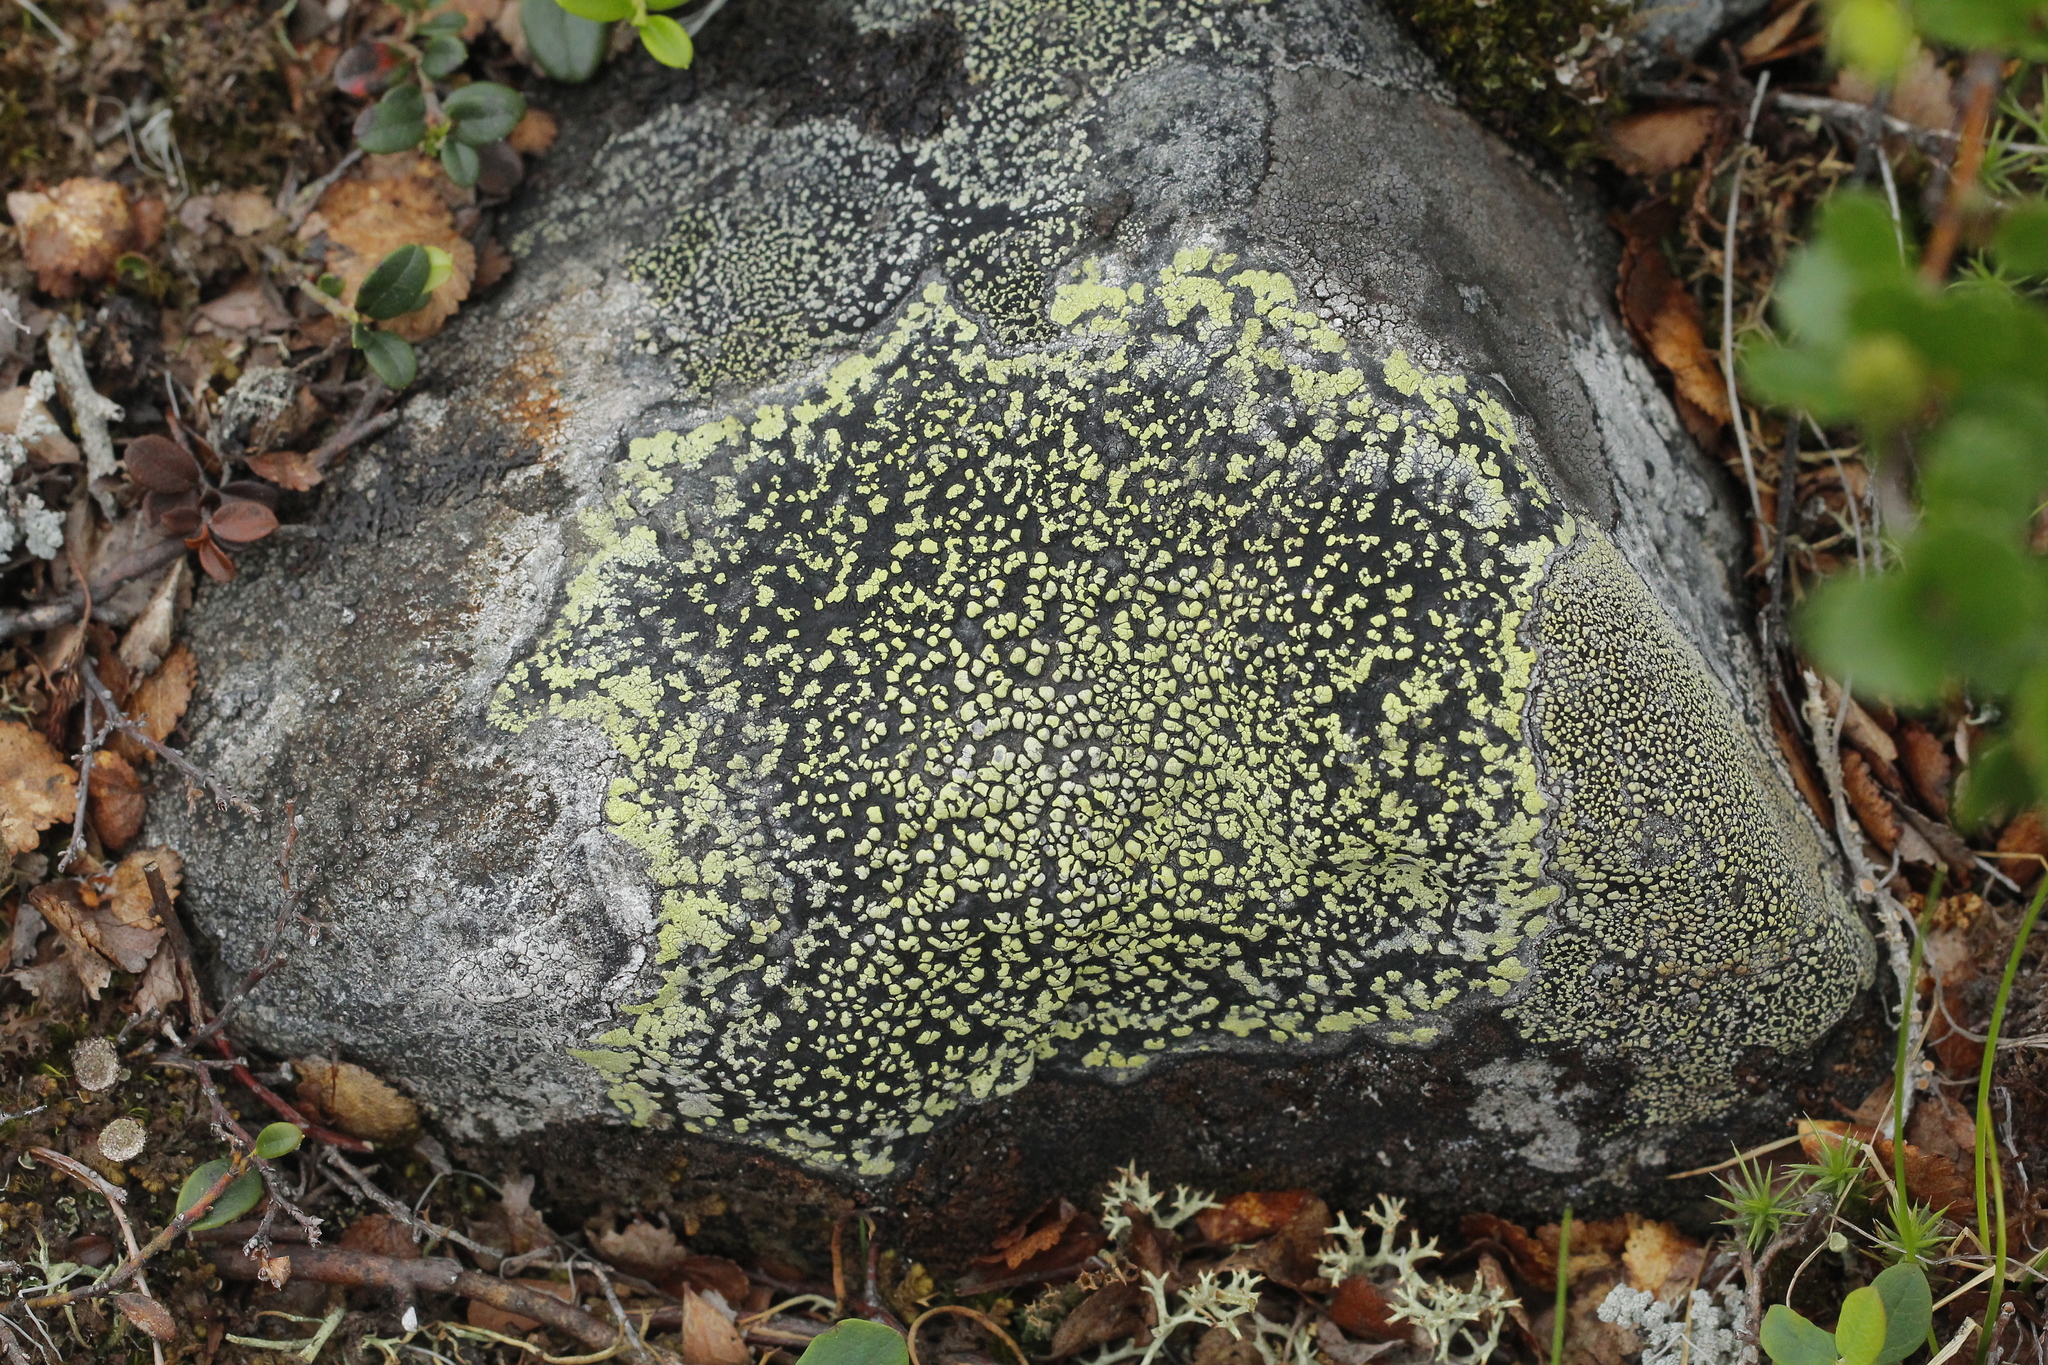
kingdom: Fungi
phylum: Ascomycota
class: Lecanoromycetes
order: Rhizocarpales
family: Rhizocarpaceae
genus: Rhizocarpon
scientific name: Rhizocarpon geographicum
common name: Yellow map lichen
